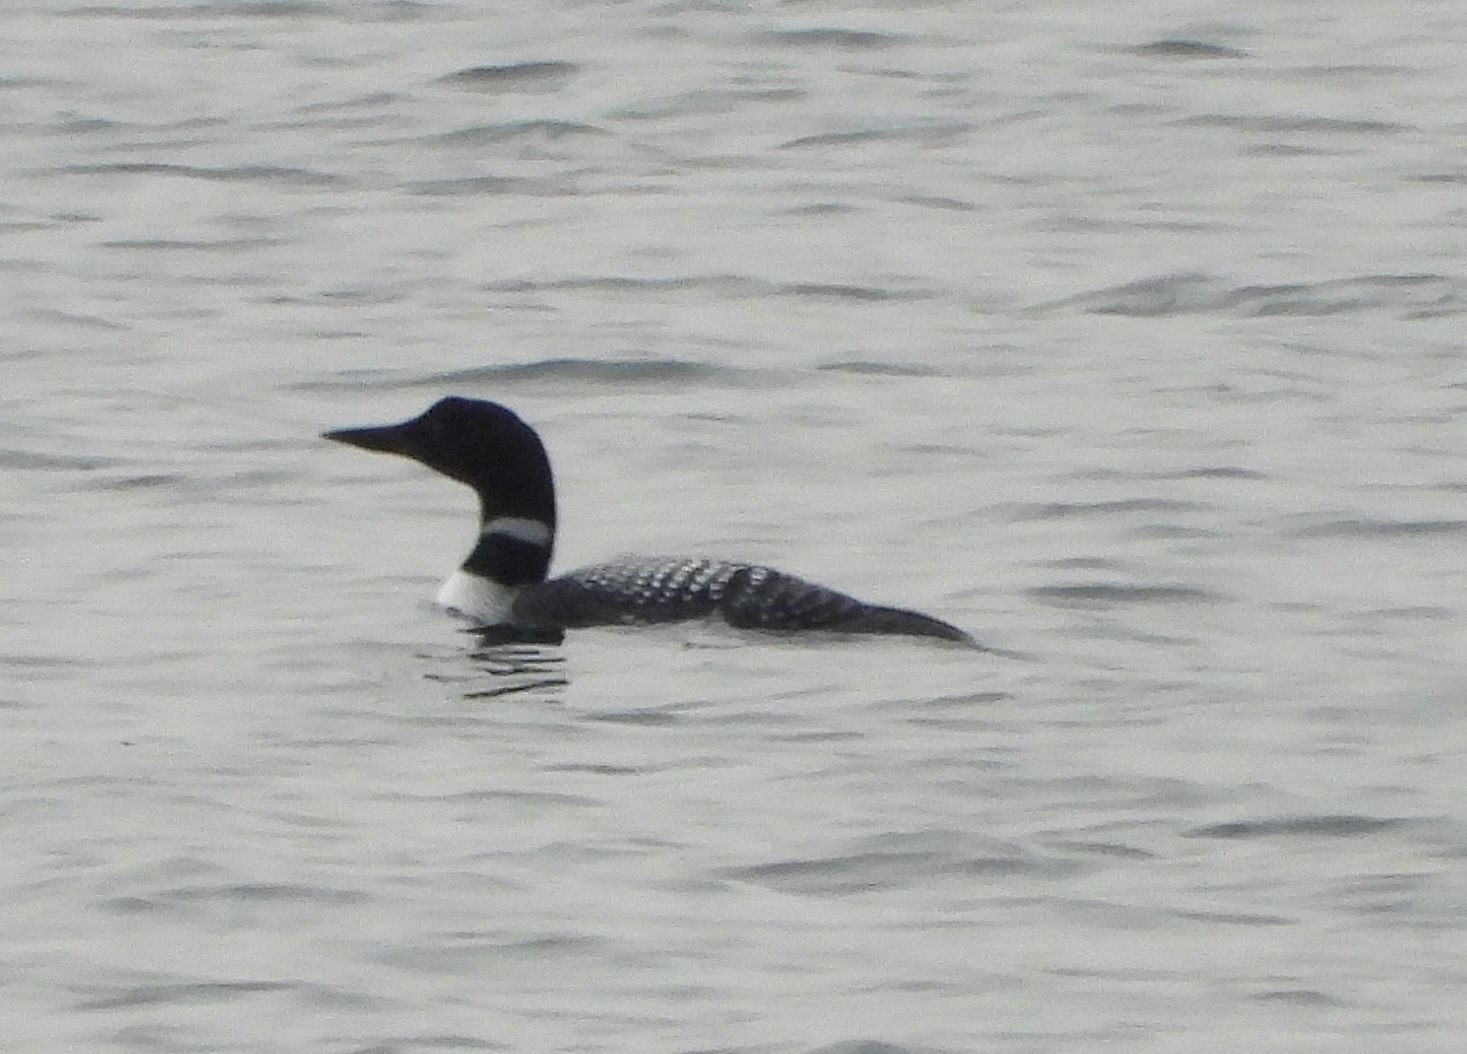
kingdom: Animalia
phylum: Chordata
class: Aves
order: Gaviiformes
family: Gaviidae
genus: Gavia
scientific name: Gavia immer
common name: Common loon
